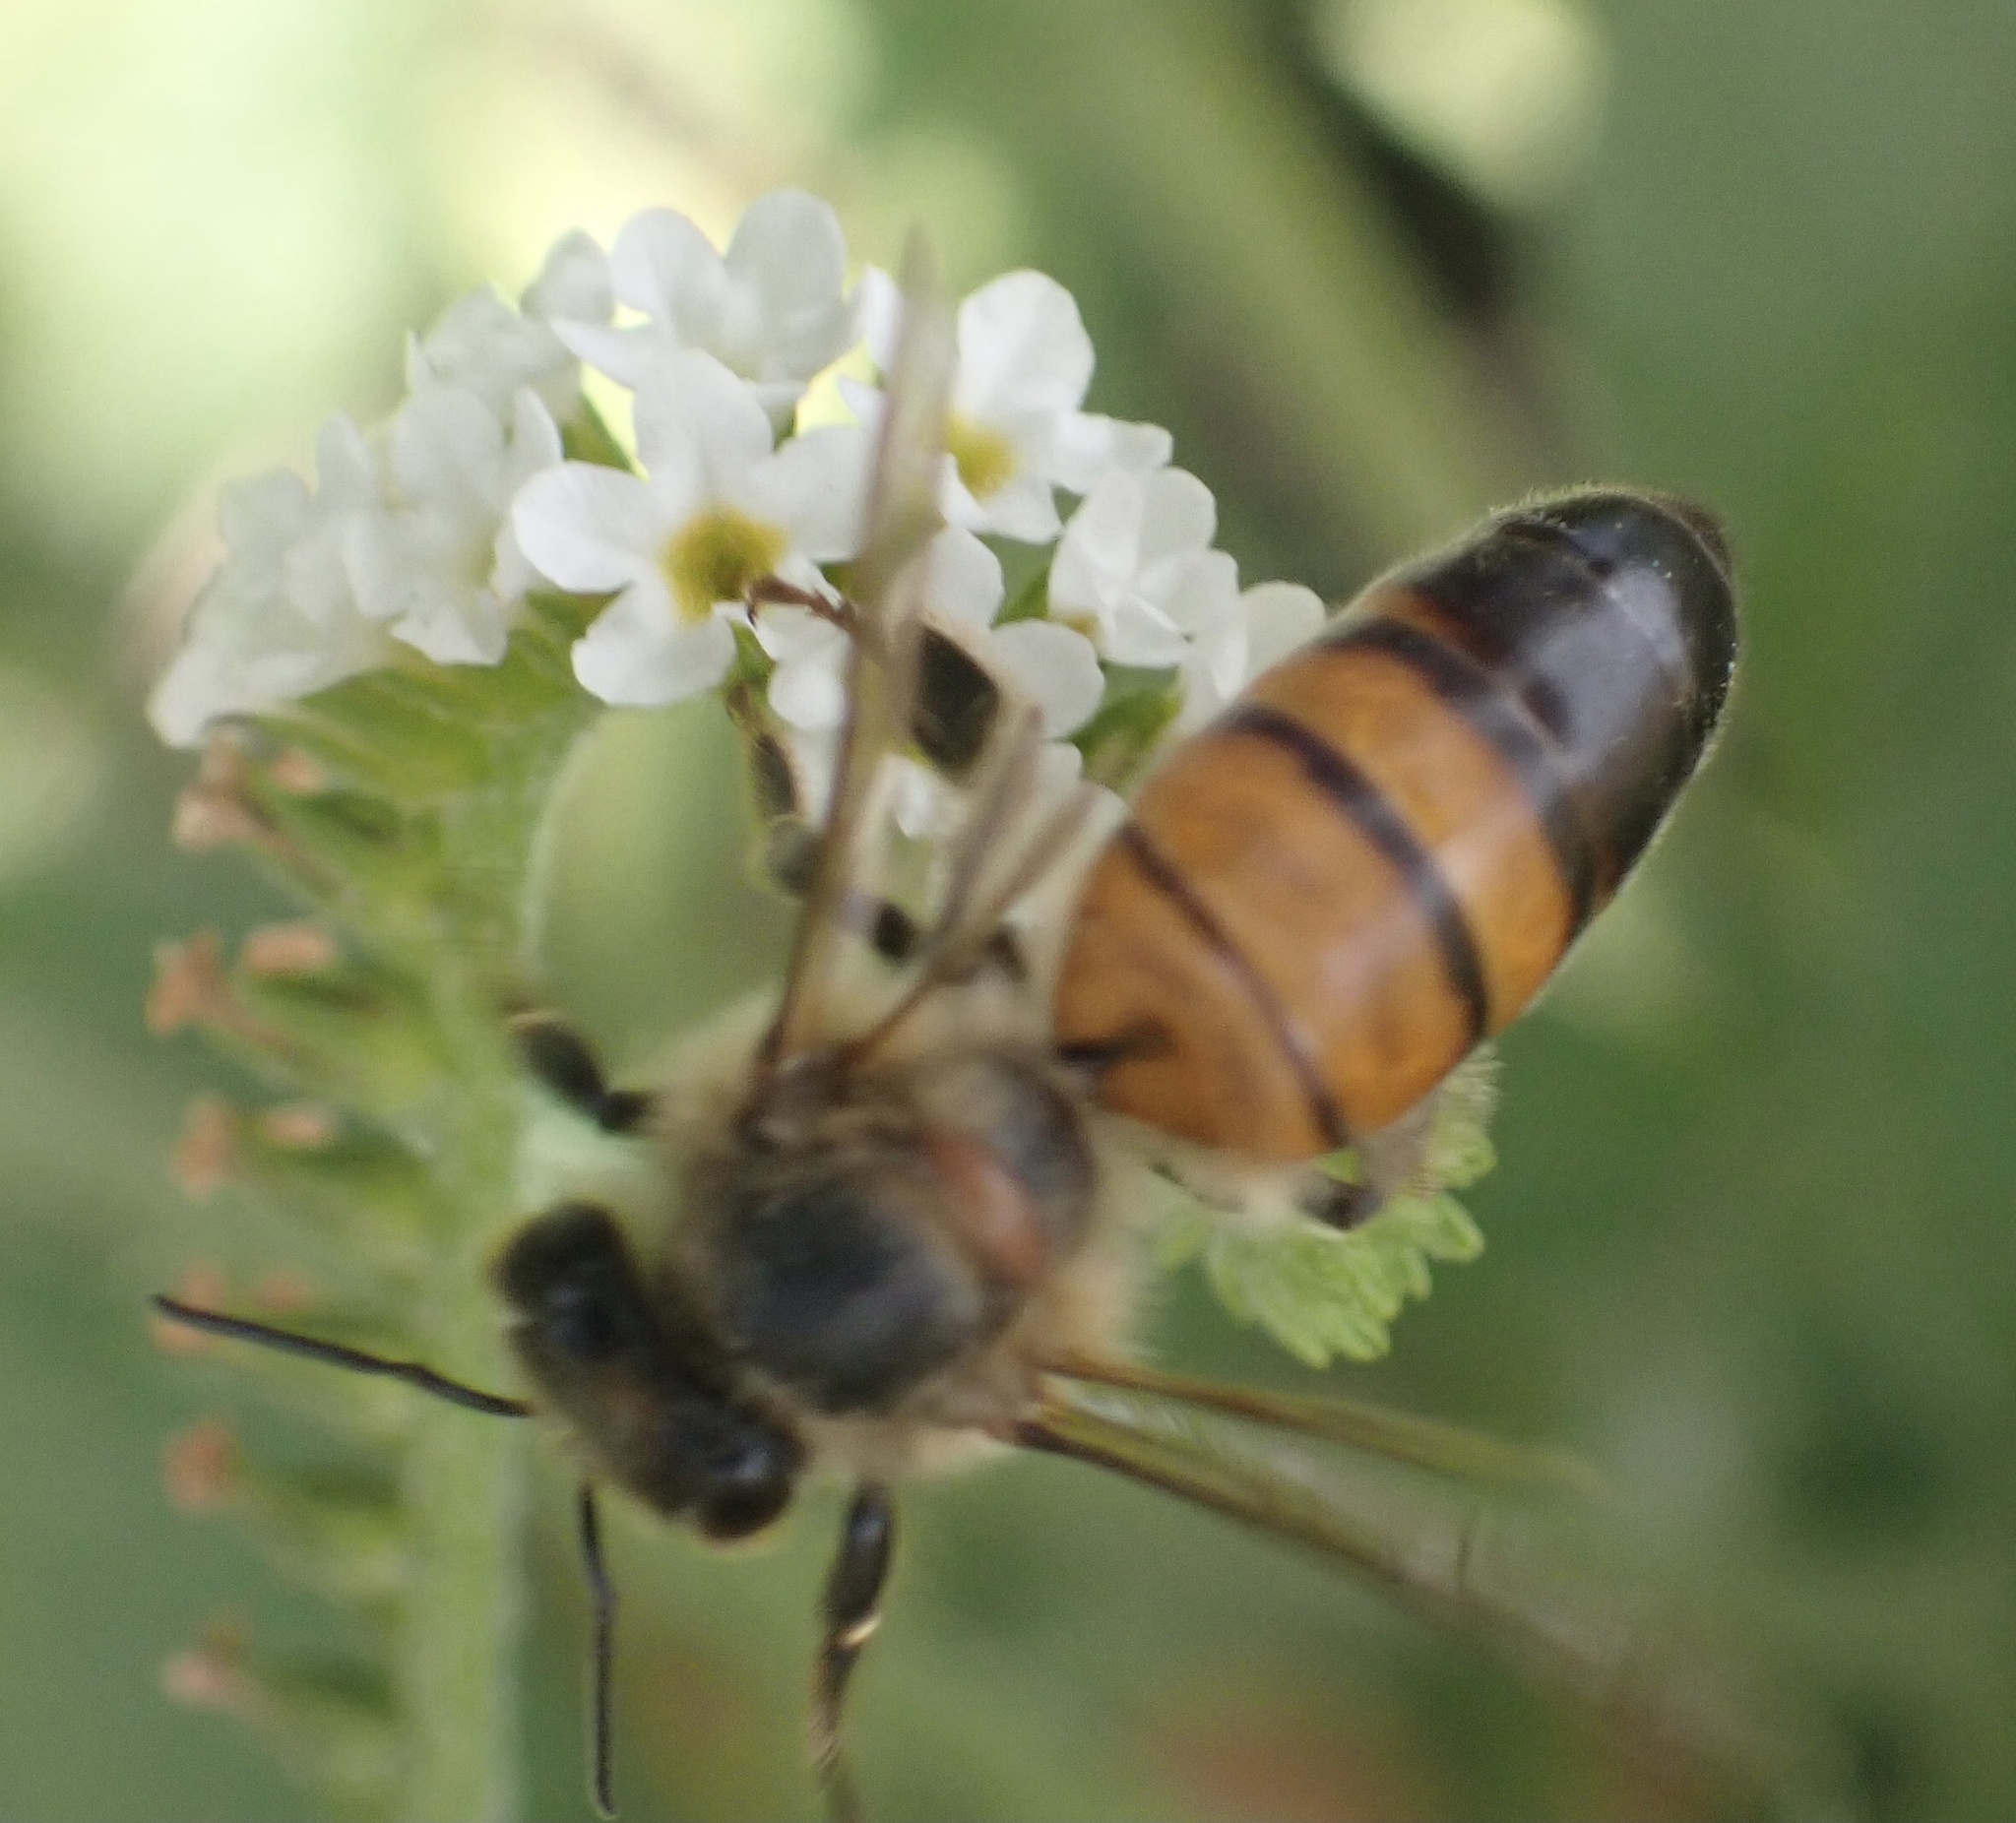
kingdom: Animalia
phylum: Arthropoda
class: Insecta
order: Hymenoptera
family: Apidae
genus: Apis
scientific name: Apis mellifera
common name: Honey bee
